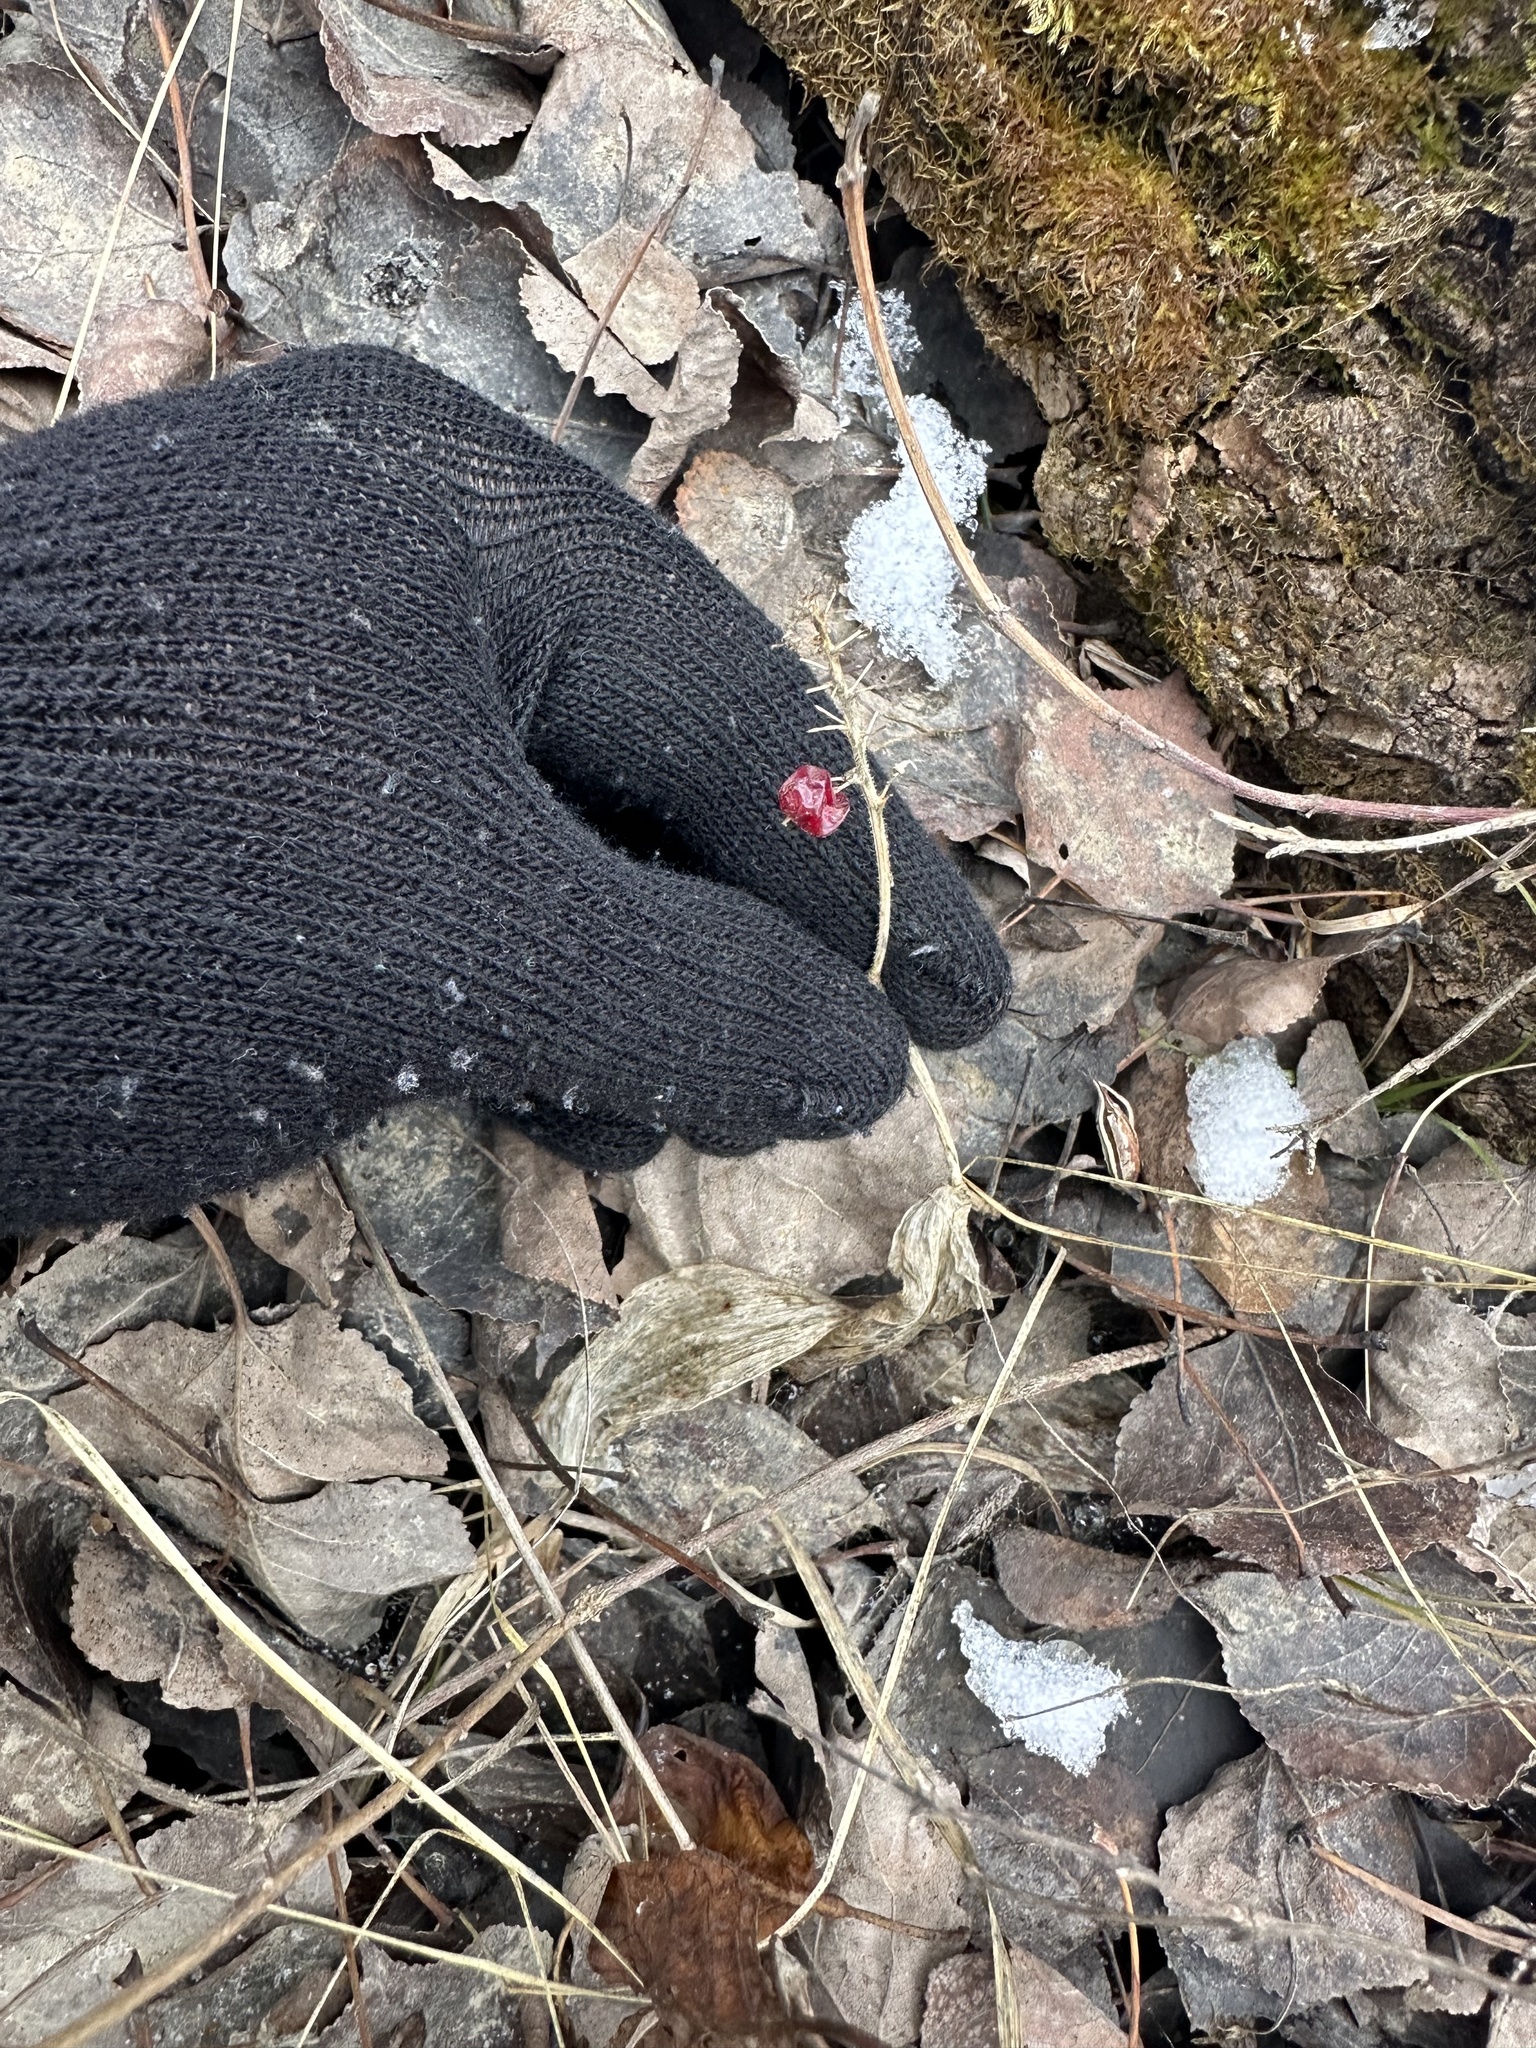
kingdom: Plantae
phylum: Tracheophyta
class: Liliopsida
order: Asparagales
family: Asparagaceae
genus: Maianthemum
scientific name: Maianthemum canadense
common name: False lily-of-the-valley
